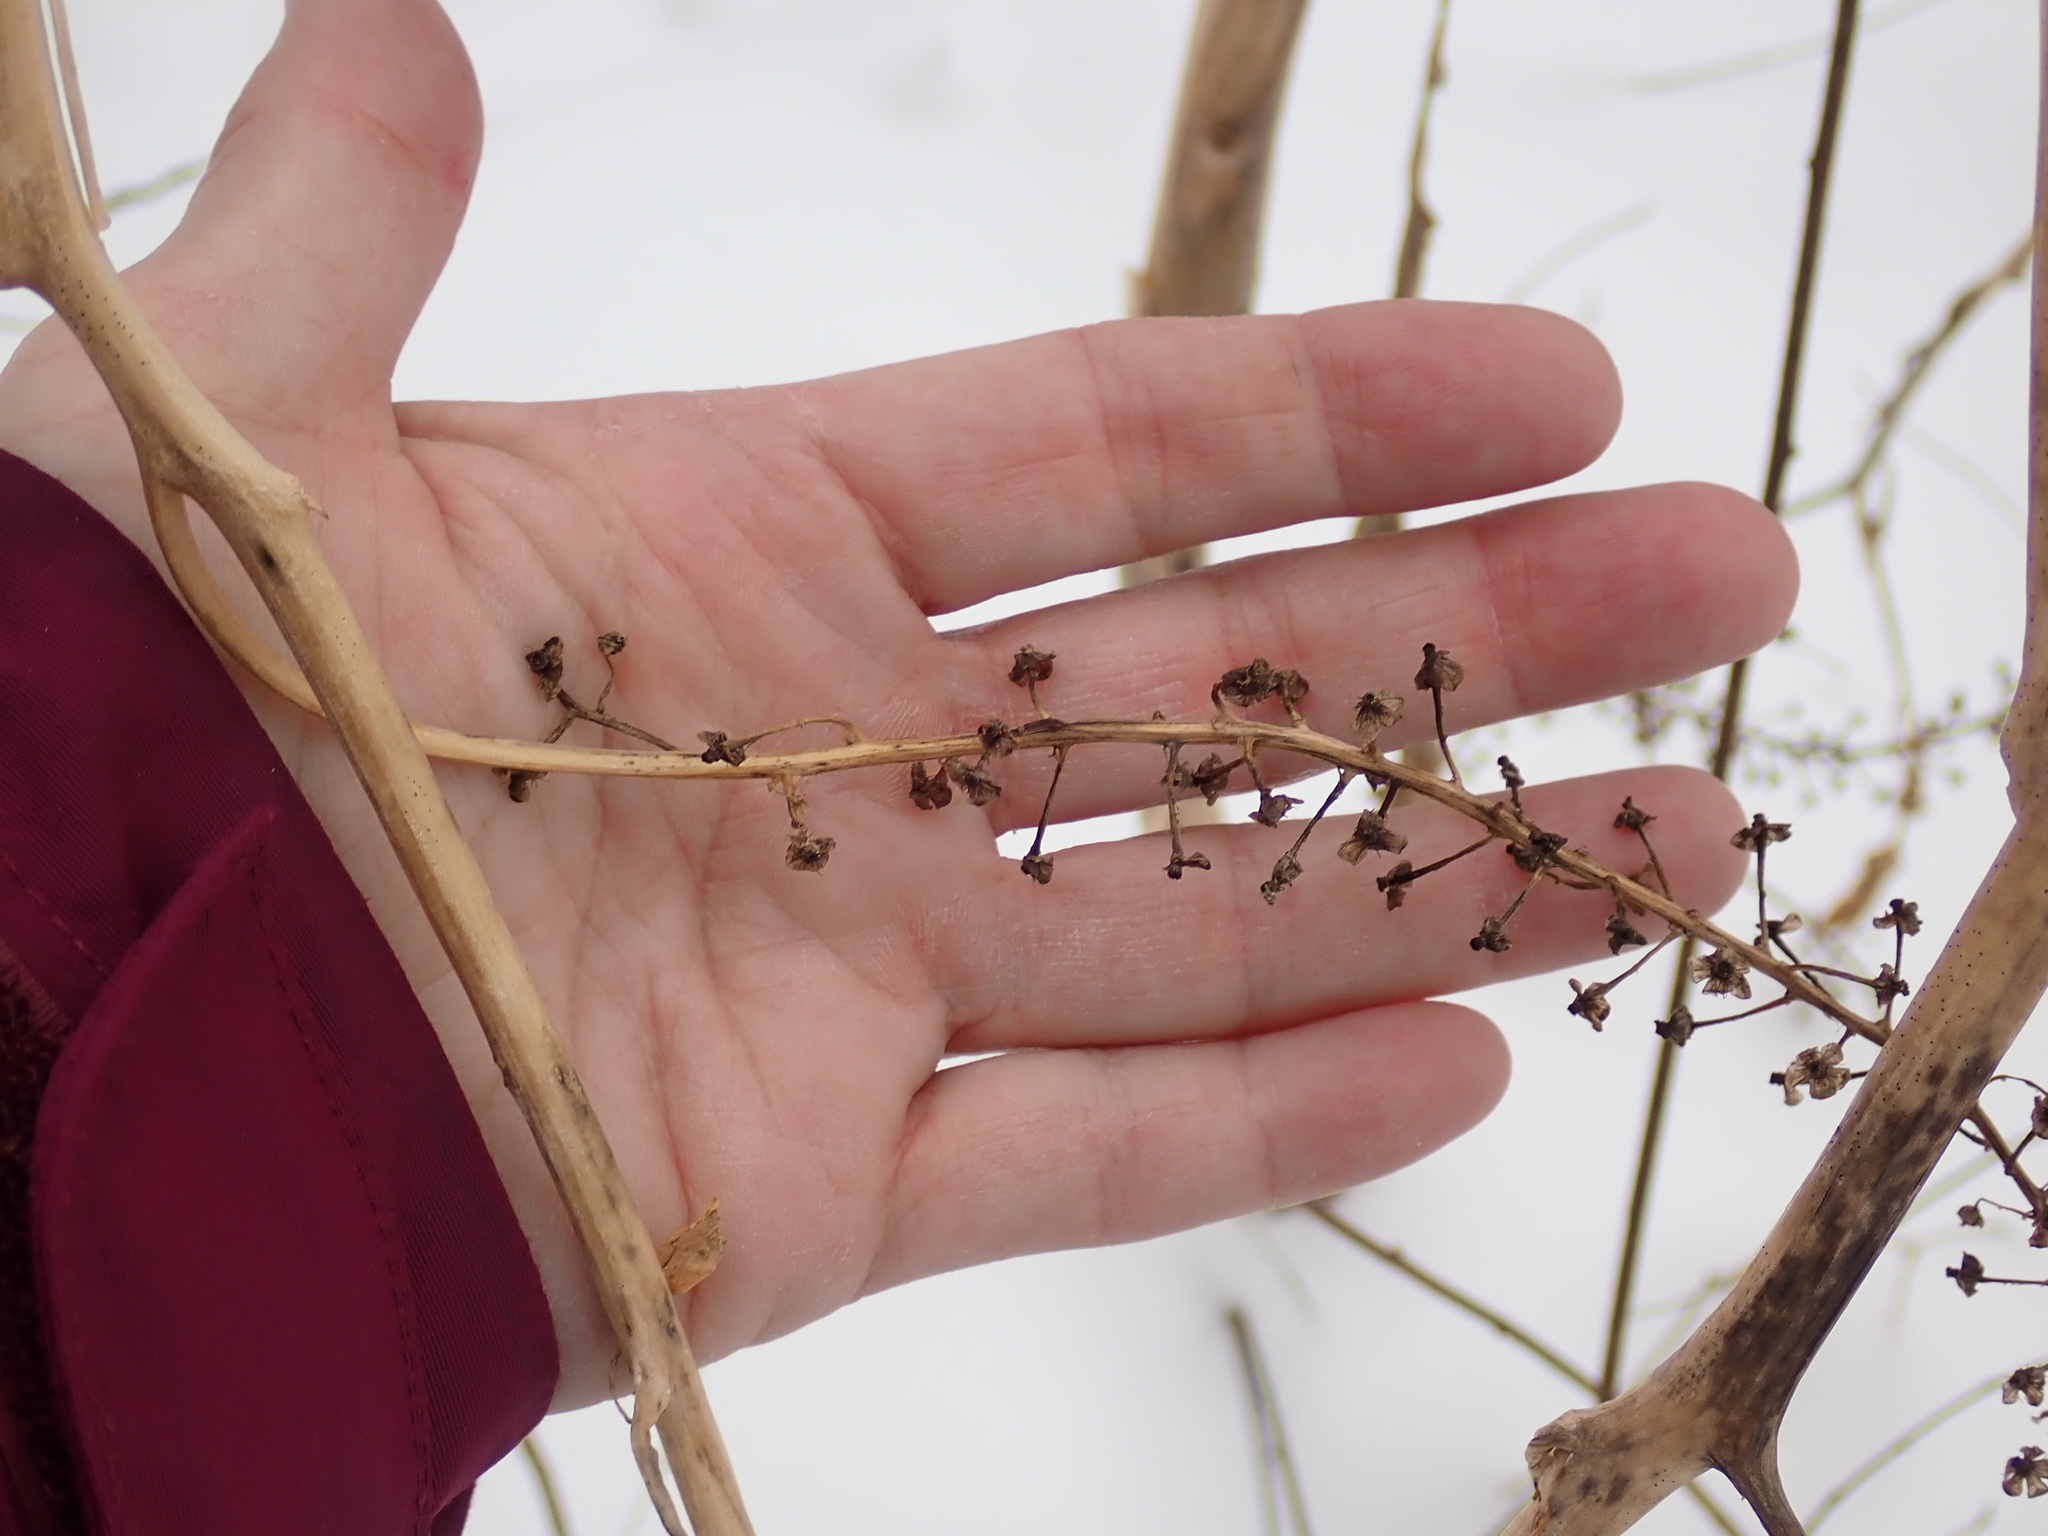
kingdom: Plantae
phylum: Tracheophyta
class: Magnoliopsida
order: Caryophyllales
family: Phytolaccaceae
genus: Phytolacca
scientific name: Phytolacca americana
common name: American pokeweed
